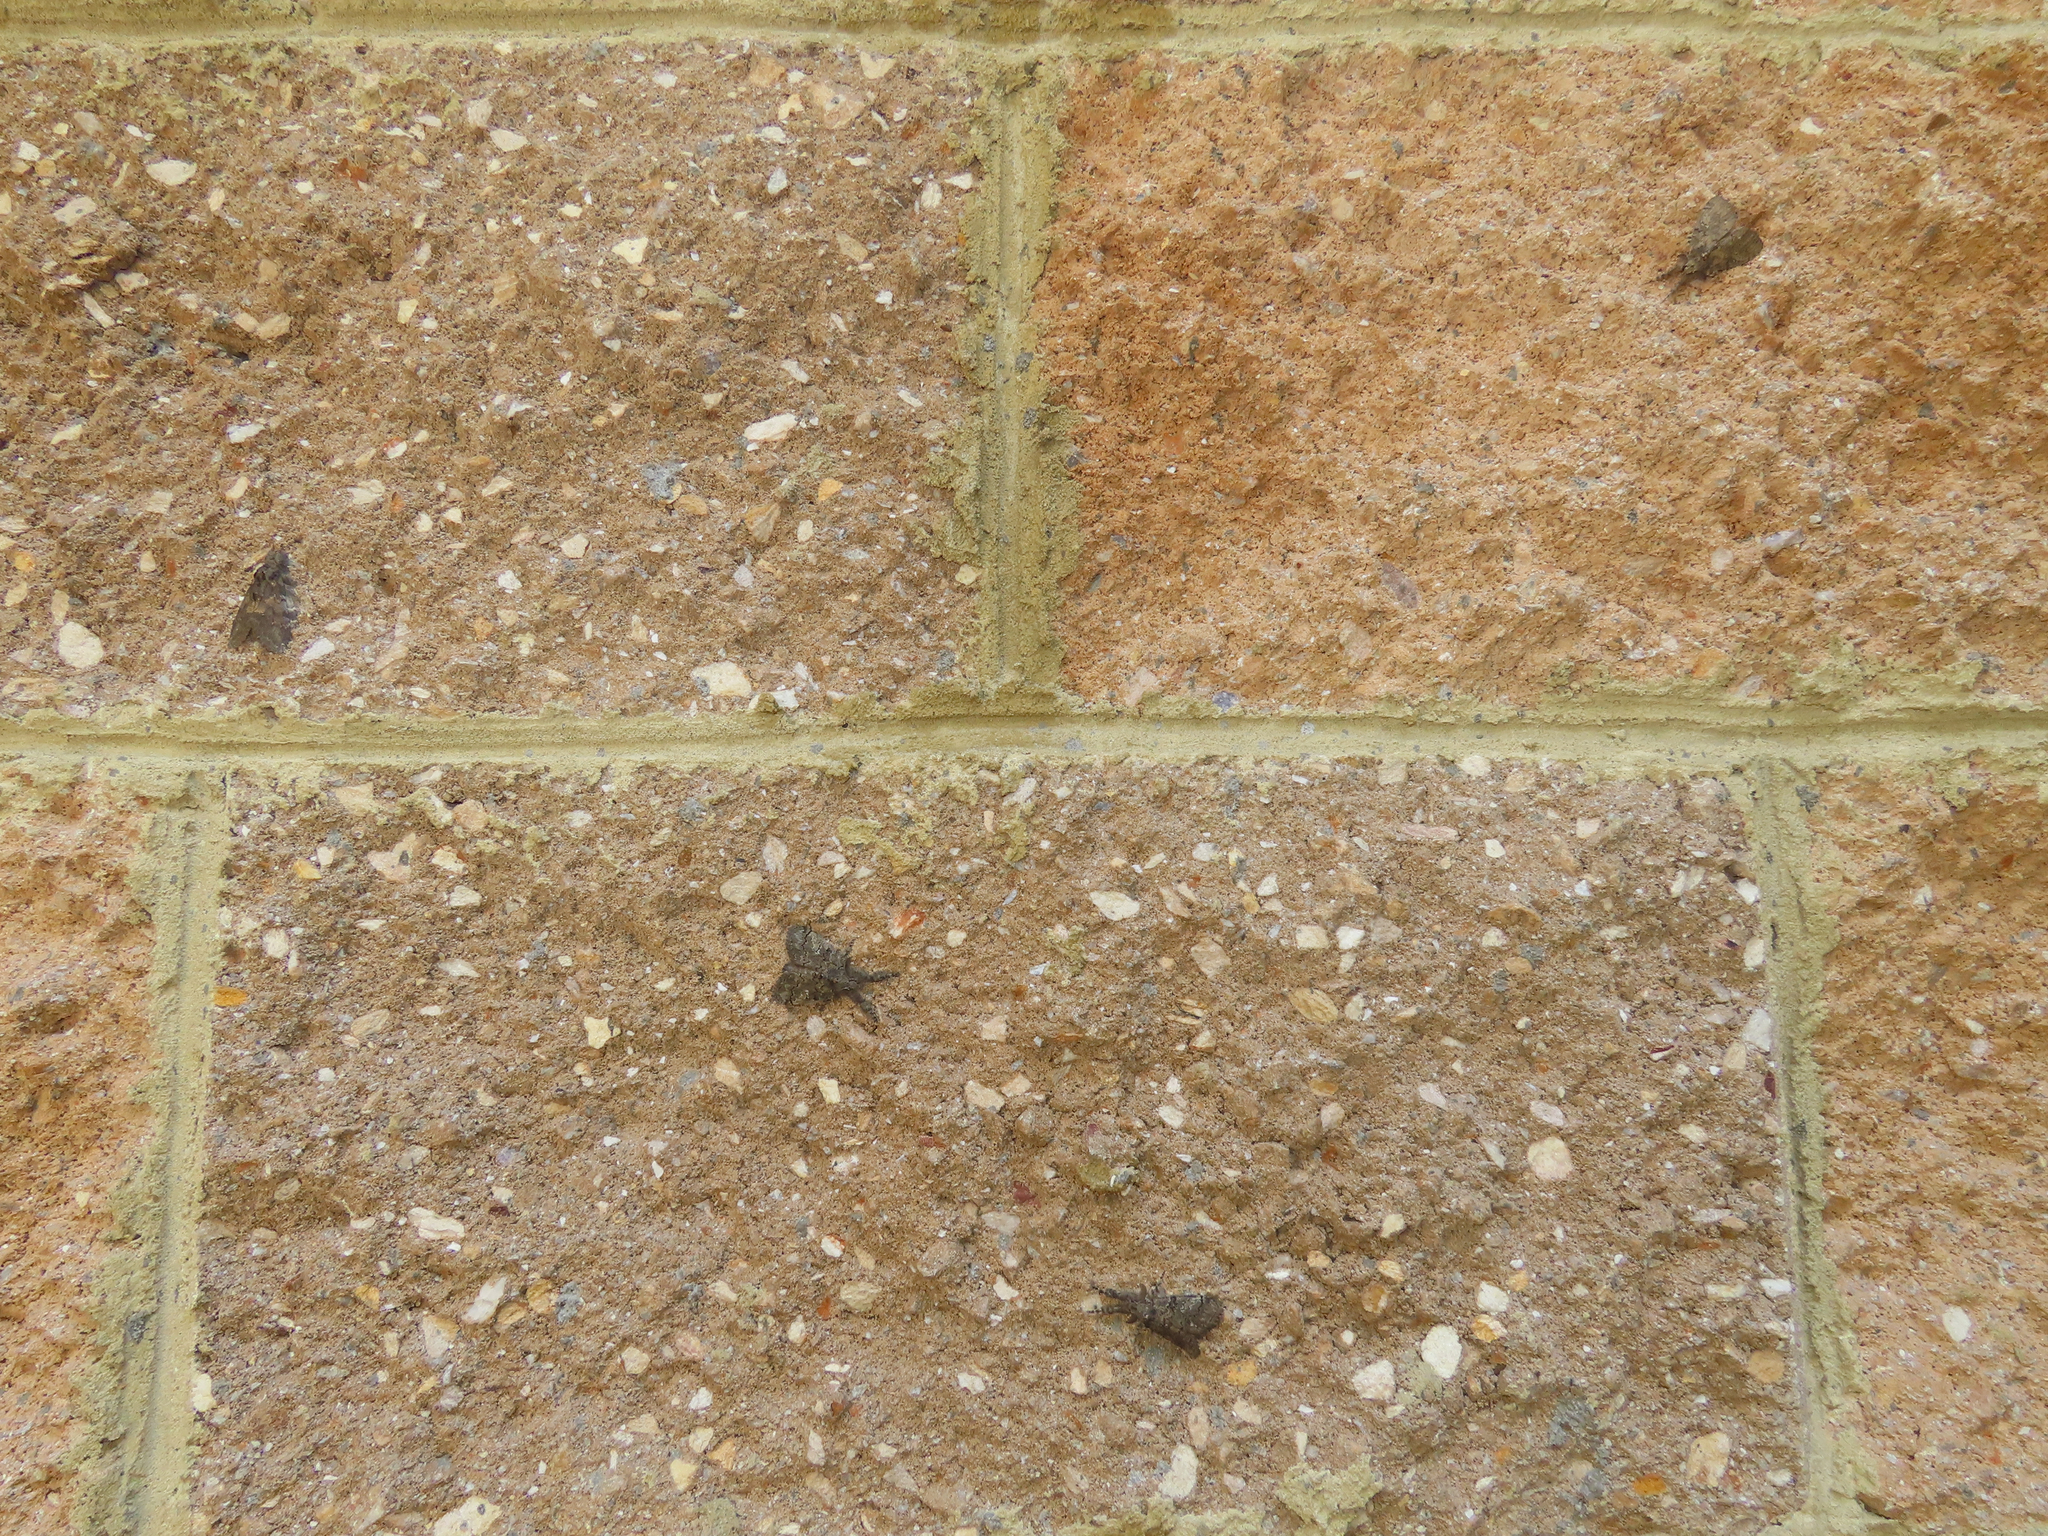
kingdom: Animalia
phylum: Arthropoda
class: Insecta
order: Lepidoptera
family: Notodontidae
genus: Peridea
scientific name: Peridea angulosa
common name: Angulose prominent
